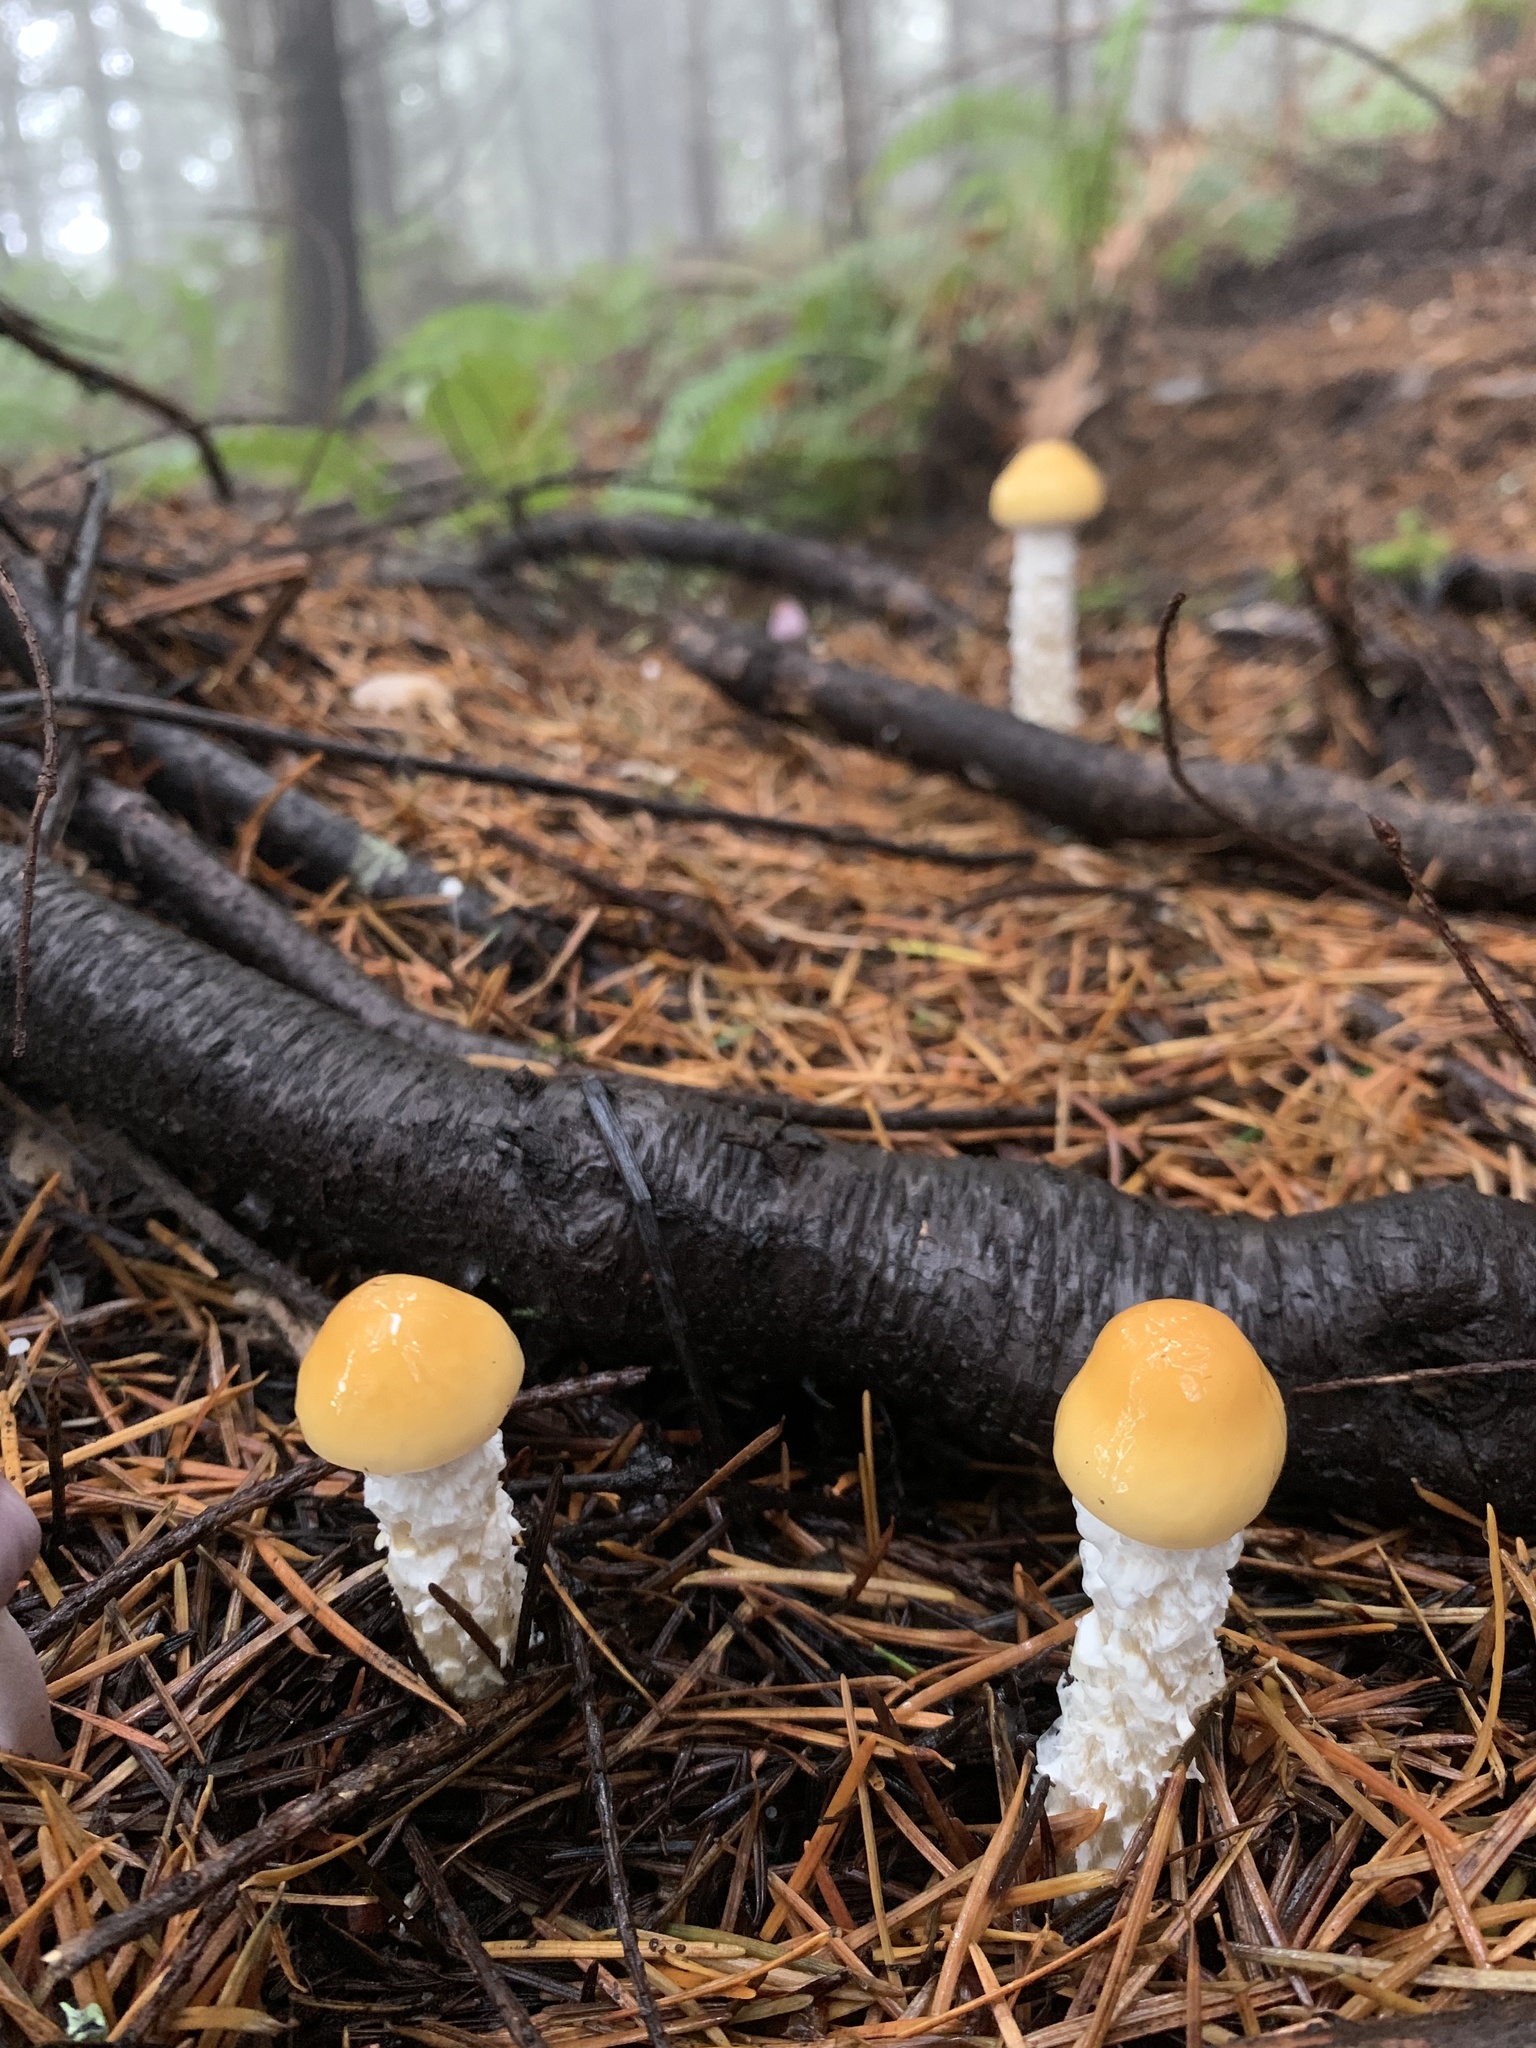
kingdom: Fungi
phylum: Basidiomycota
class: Agaricomycetes
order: Agaricales
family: Strophariaceae
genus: Stropharia
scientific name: Stropharia ambigua
